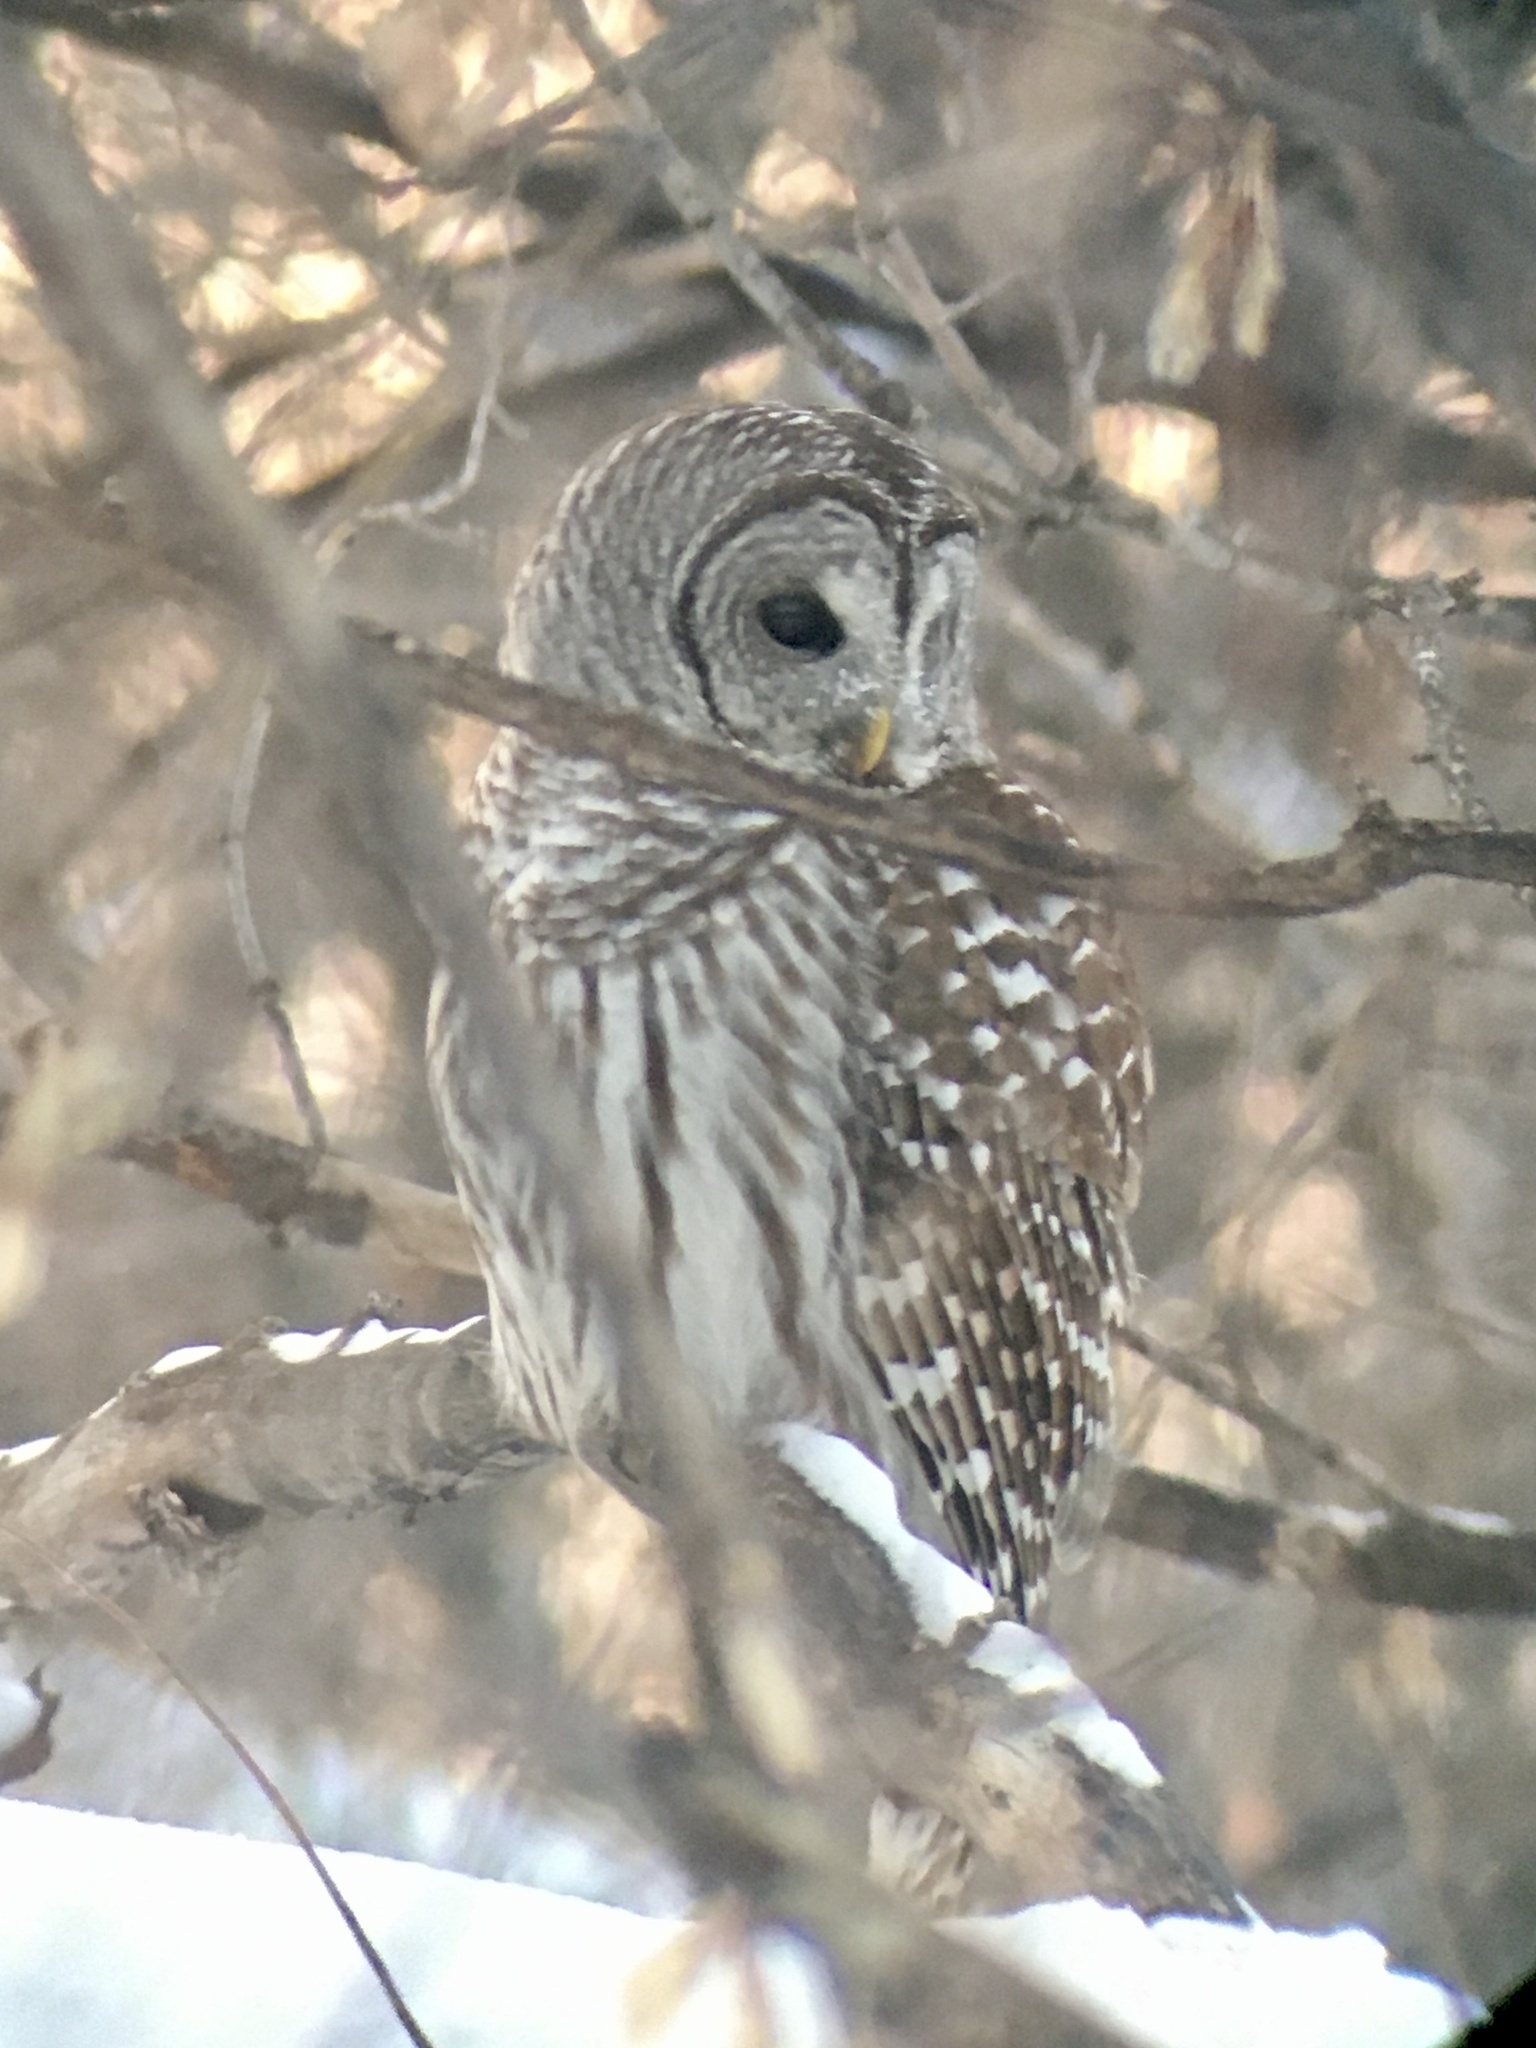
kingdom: Animalia
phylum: Chordata
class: Aves
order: Strigiformes
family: Strigidae
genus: Strix
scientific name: Strix varia
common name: Barred owl
